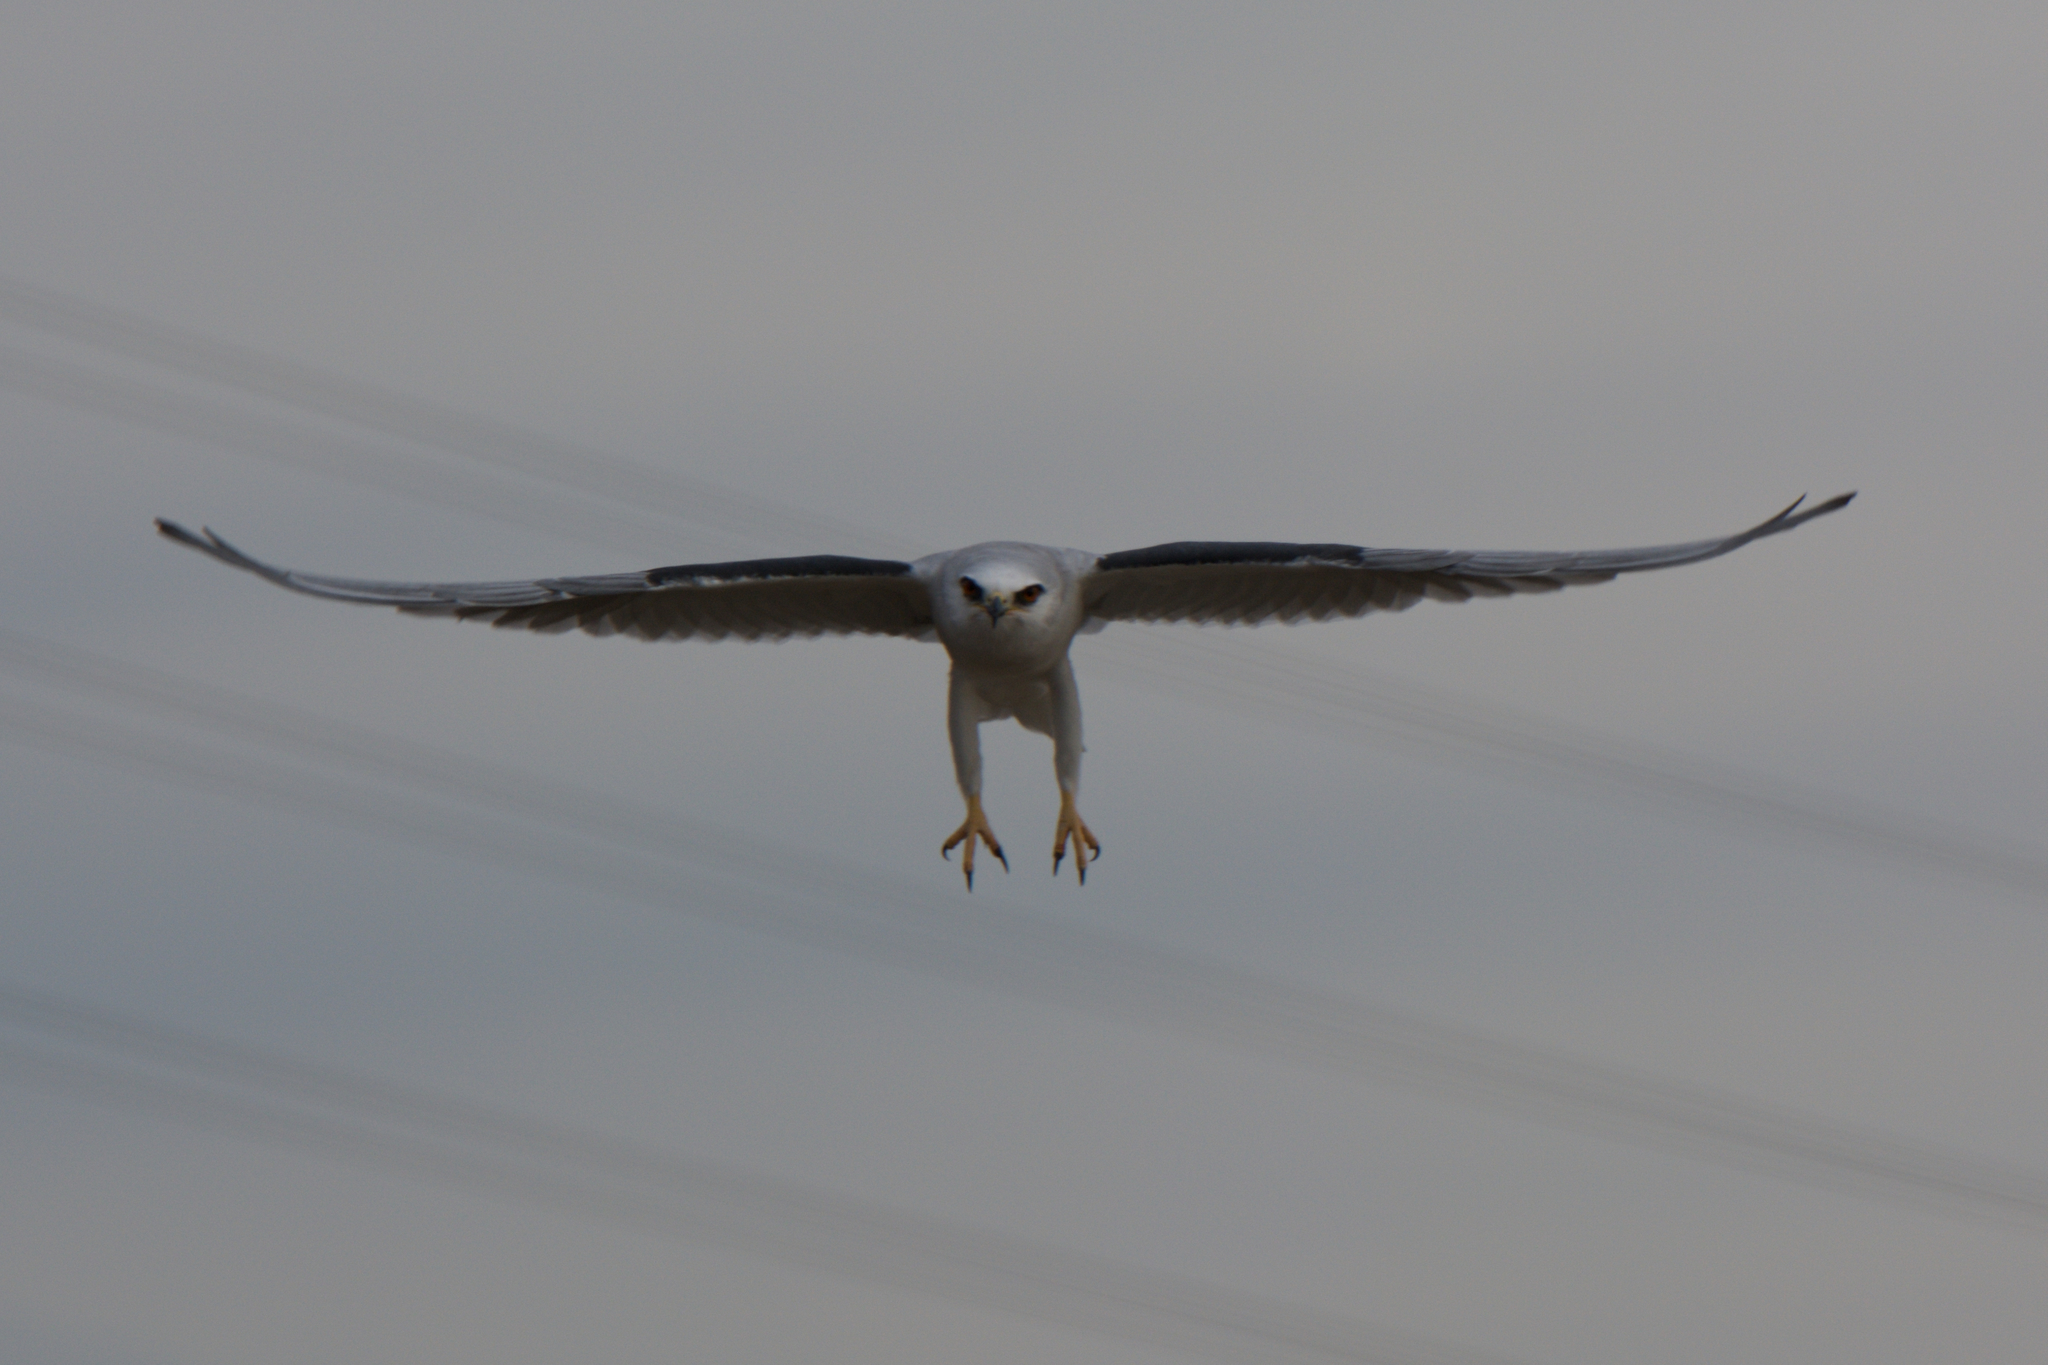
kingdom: Animalia
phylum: Chordata
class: Aves
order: Accipitriformes
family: Accipitridae
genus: Elanus
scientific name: Elanus leucurus
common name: White-tailed kite
